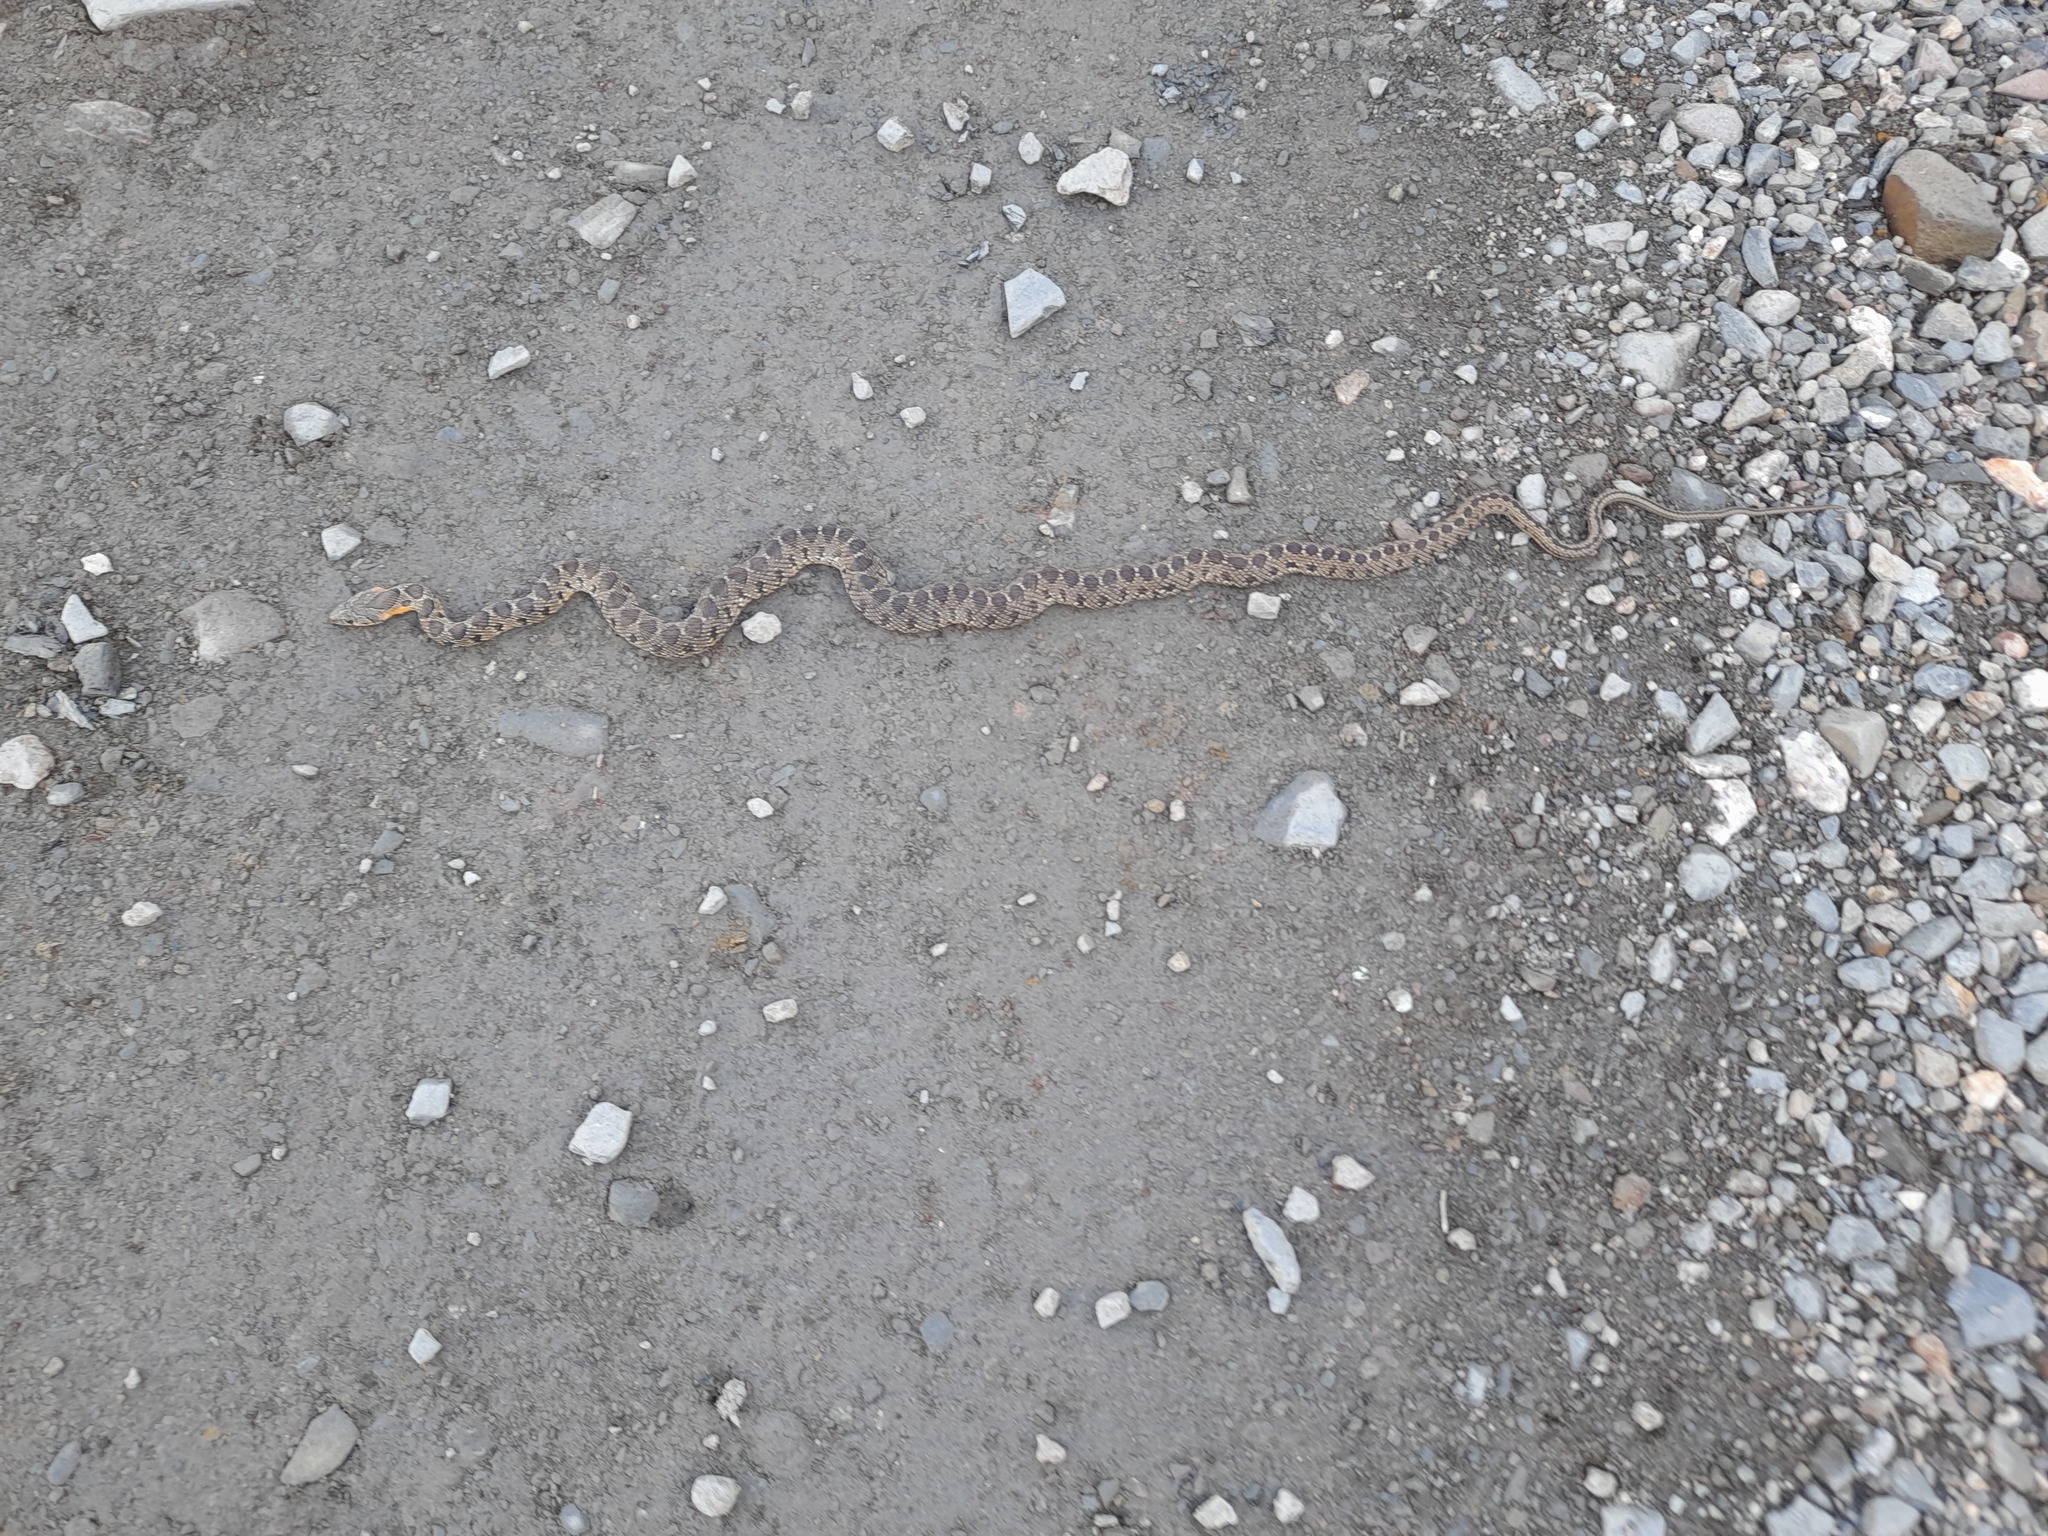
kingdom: Animalia
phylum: Chordata
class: Squamata
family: Colubridae
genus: Hemorrhois
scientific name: Hemorrhois hippocrepis
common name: Horseshoe whip snake
